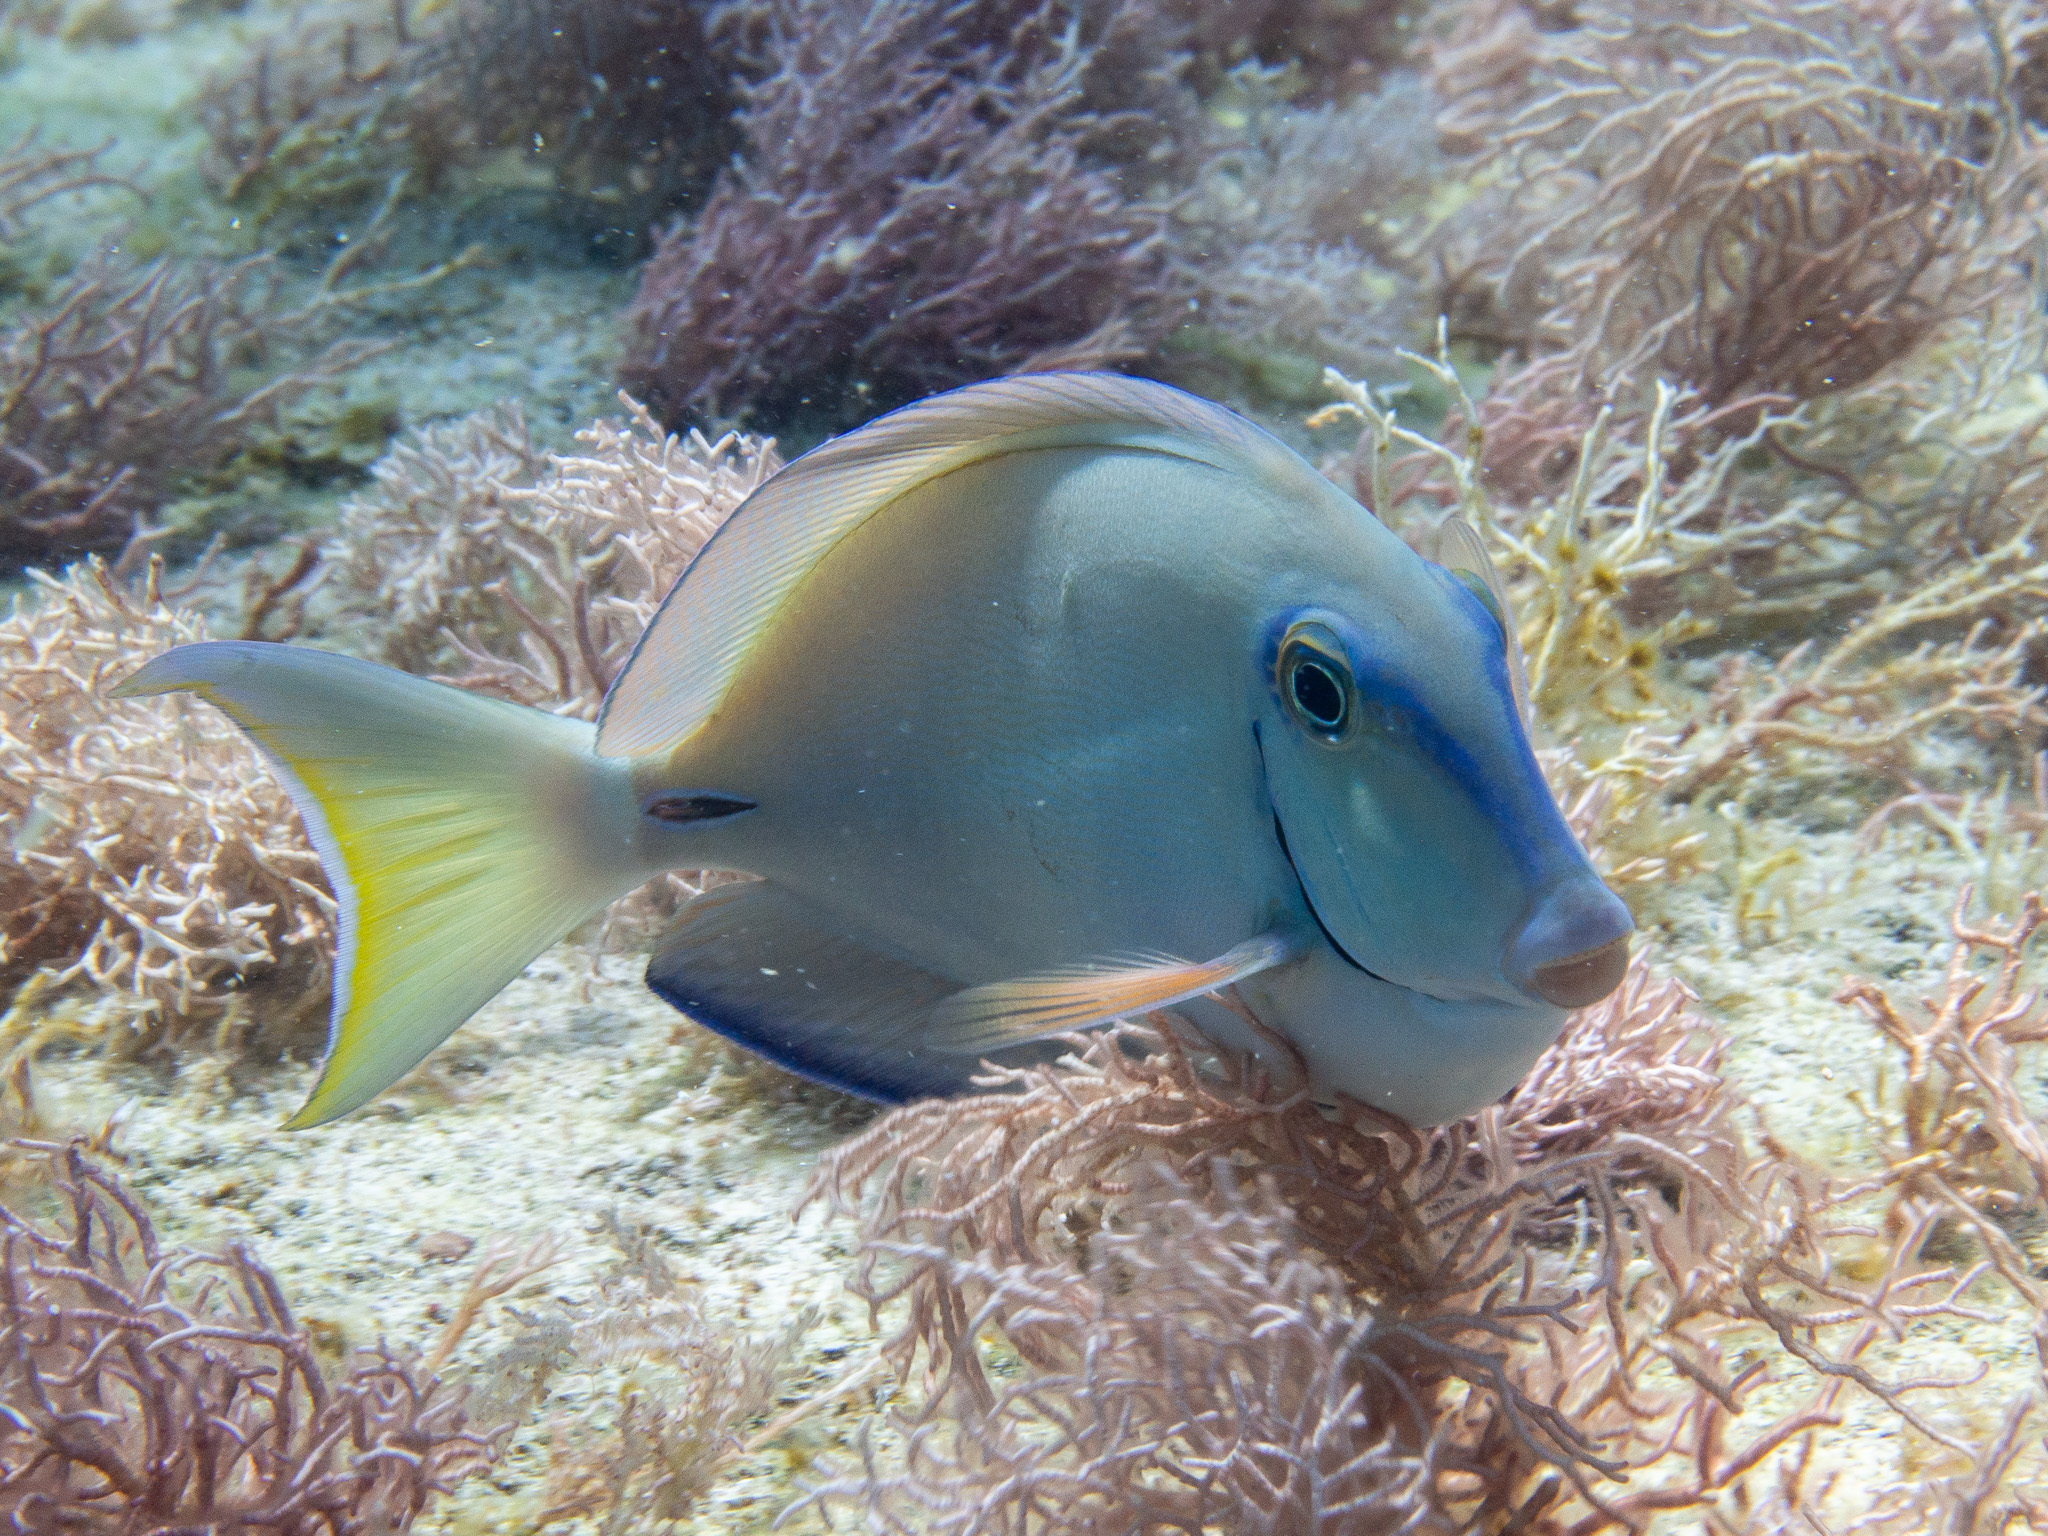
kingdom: Animalia
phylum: Chordata
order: Perciformes
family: Acanthuridae
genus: Acanthurus
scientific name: Acanthurus bahianus
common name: Ocean surgeon
